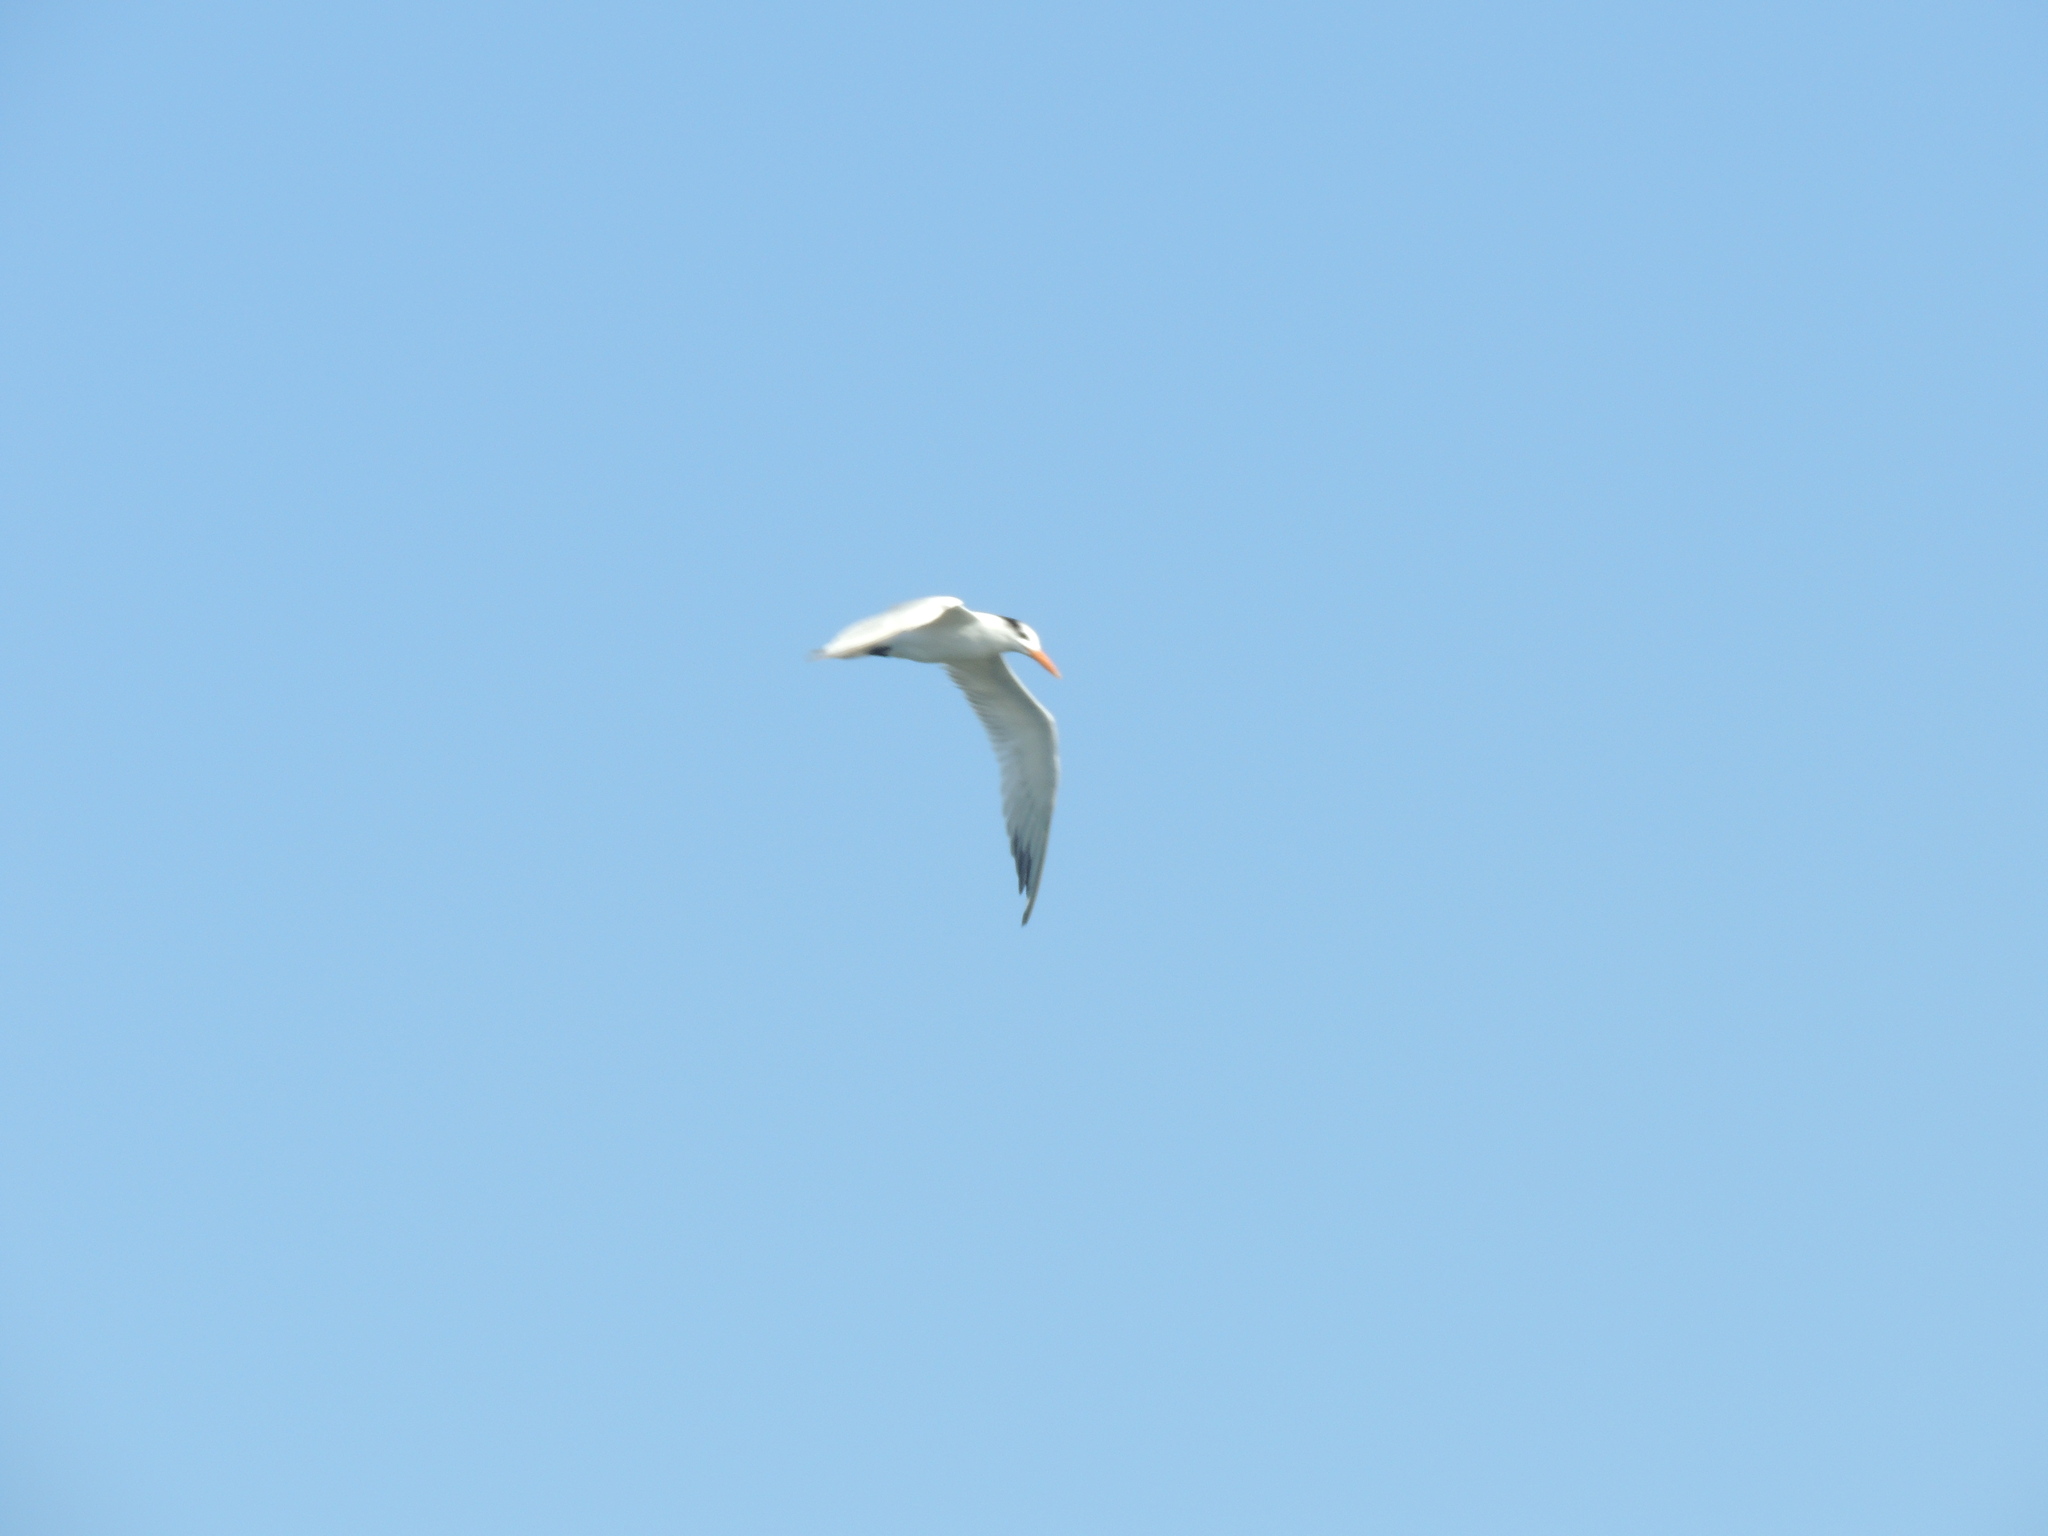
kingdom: Animalia
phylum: Chordata
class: Aves
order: Charadriiformes
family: Laridae
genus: Thalasseus
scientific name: Thalasseus maximus
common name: Royal tern
